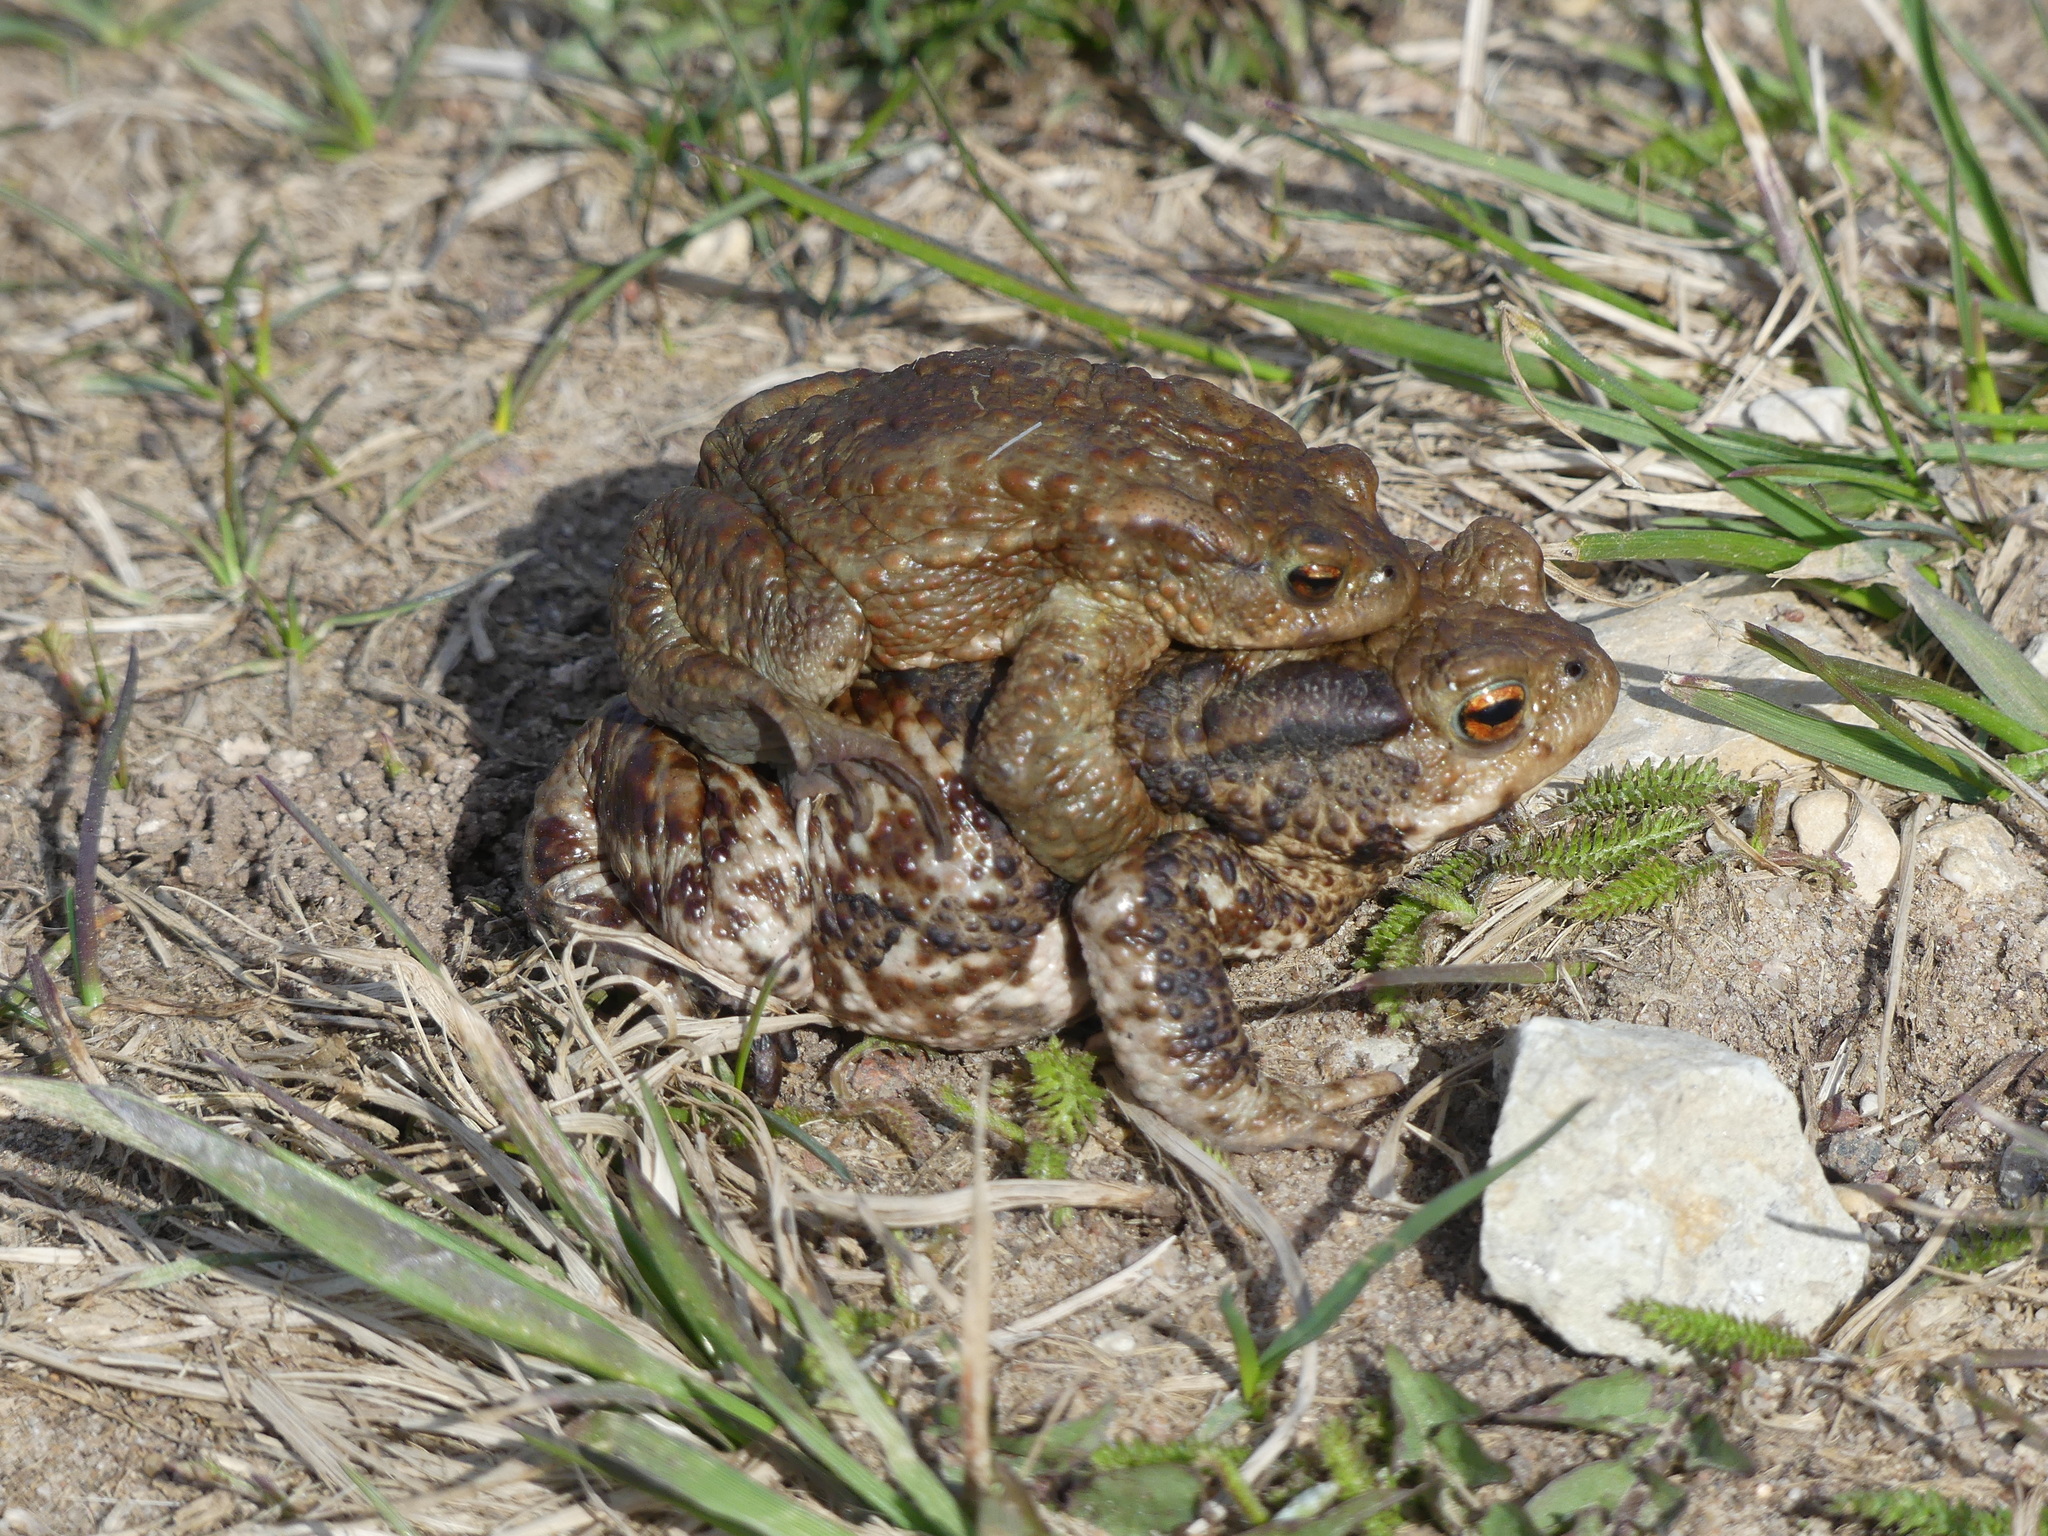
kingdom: Animalia
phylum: Chordata
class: Amphibia
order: Anura
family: Bufonidae
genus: Bufo
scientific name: Bufo bufo
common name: Common toad
